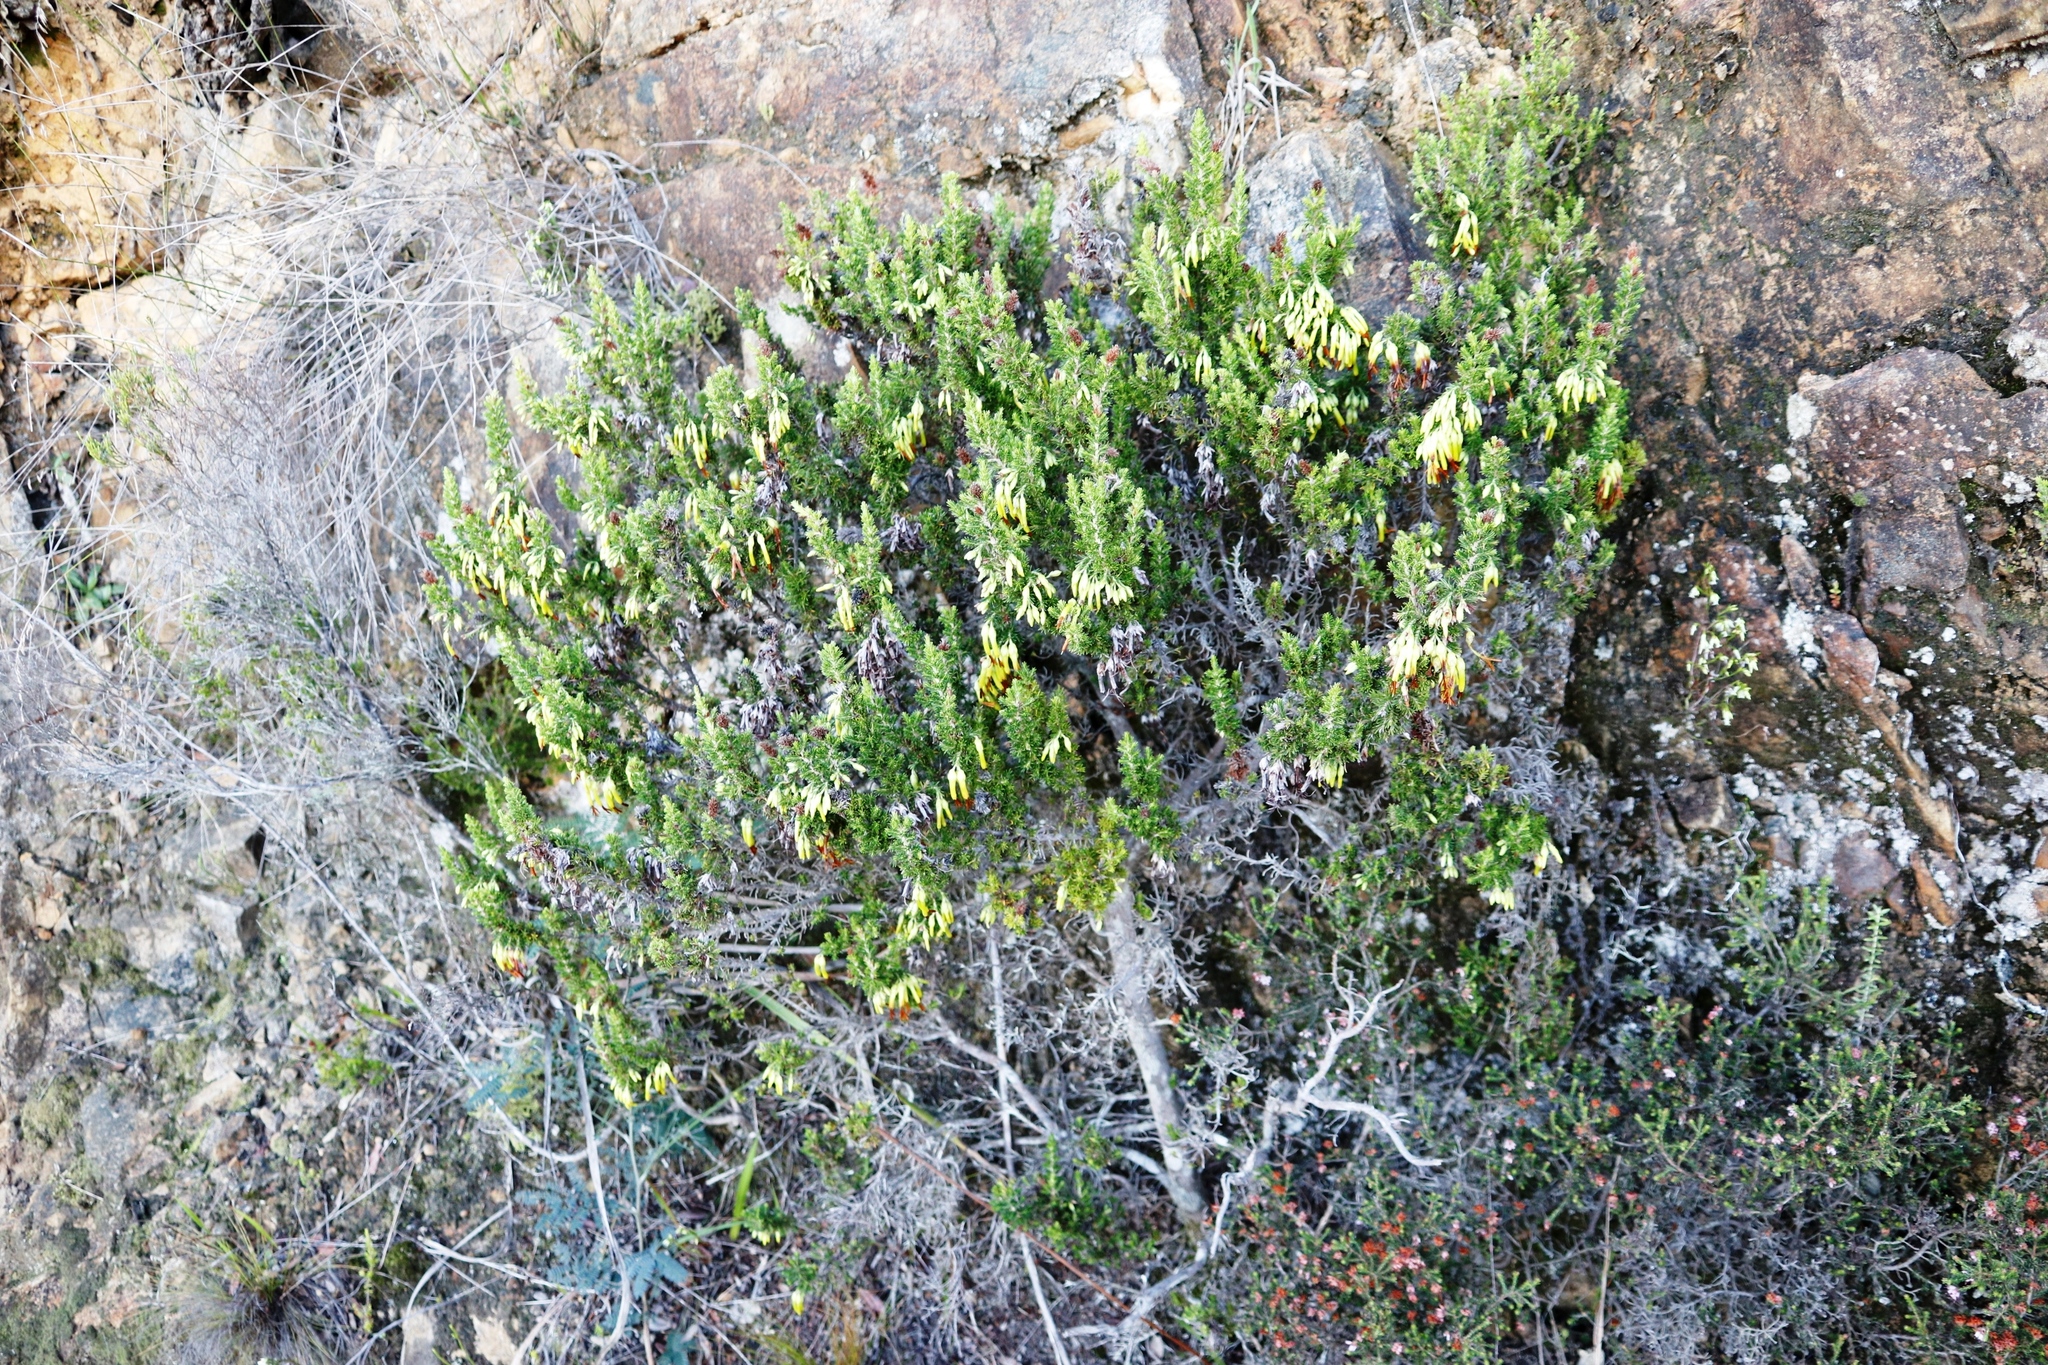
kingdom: Plantae
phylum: Tracheophyta
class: Magnoliopsida
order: Ericales
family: Ericaceae
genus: Erica
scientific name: Erica coccinea
